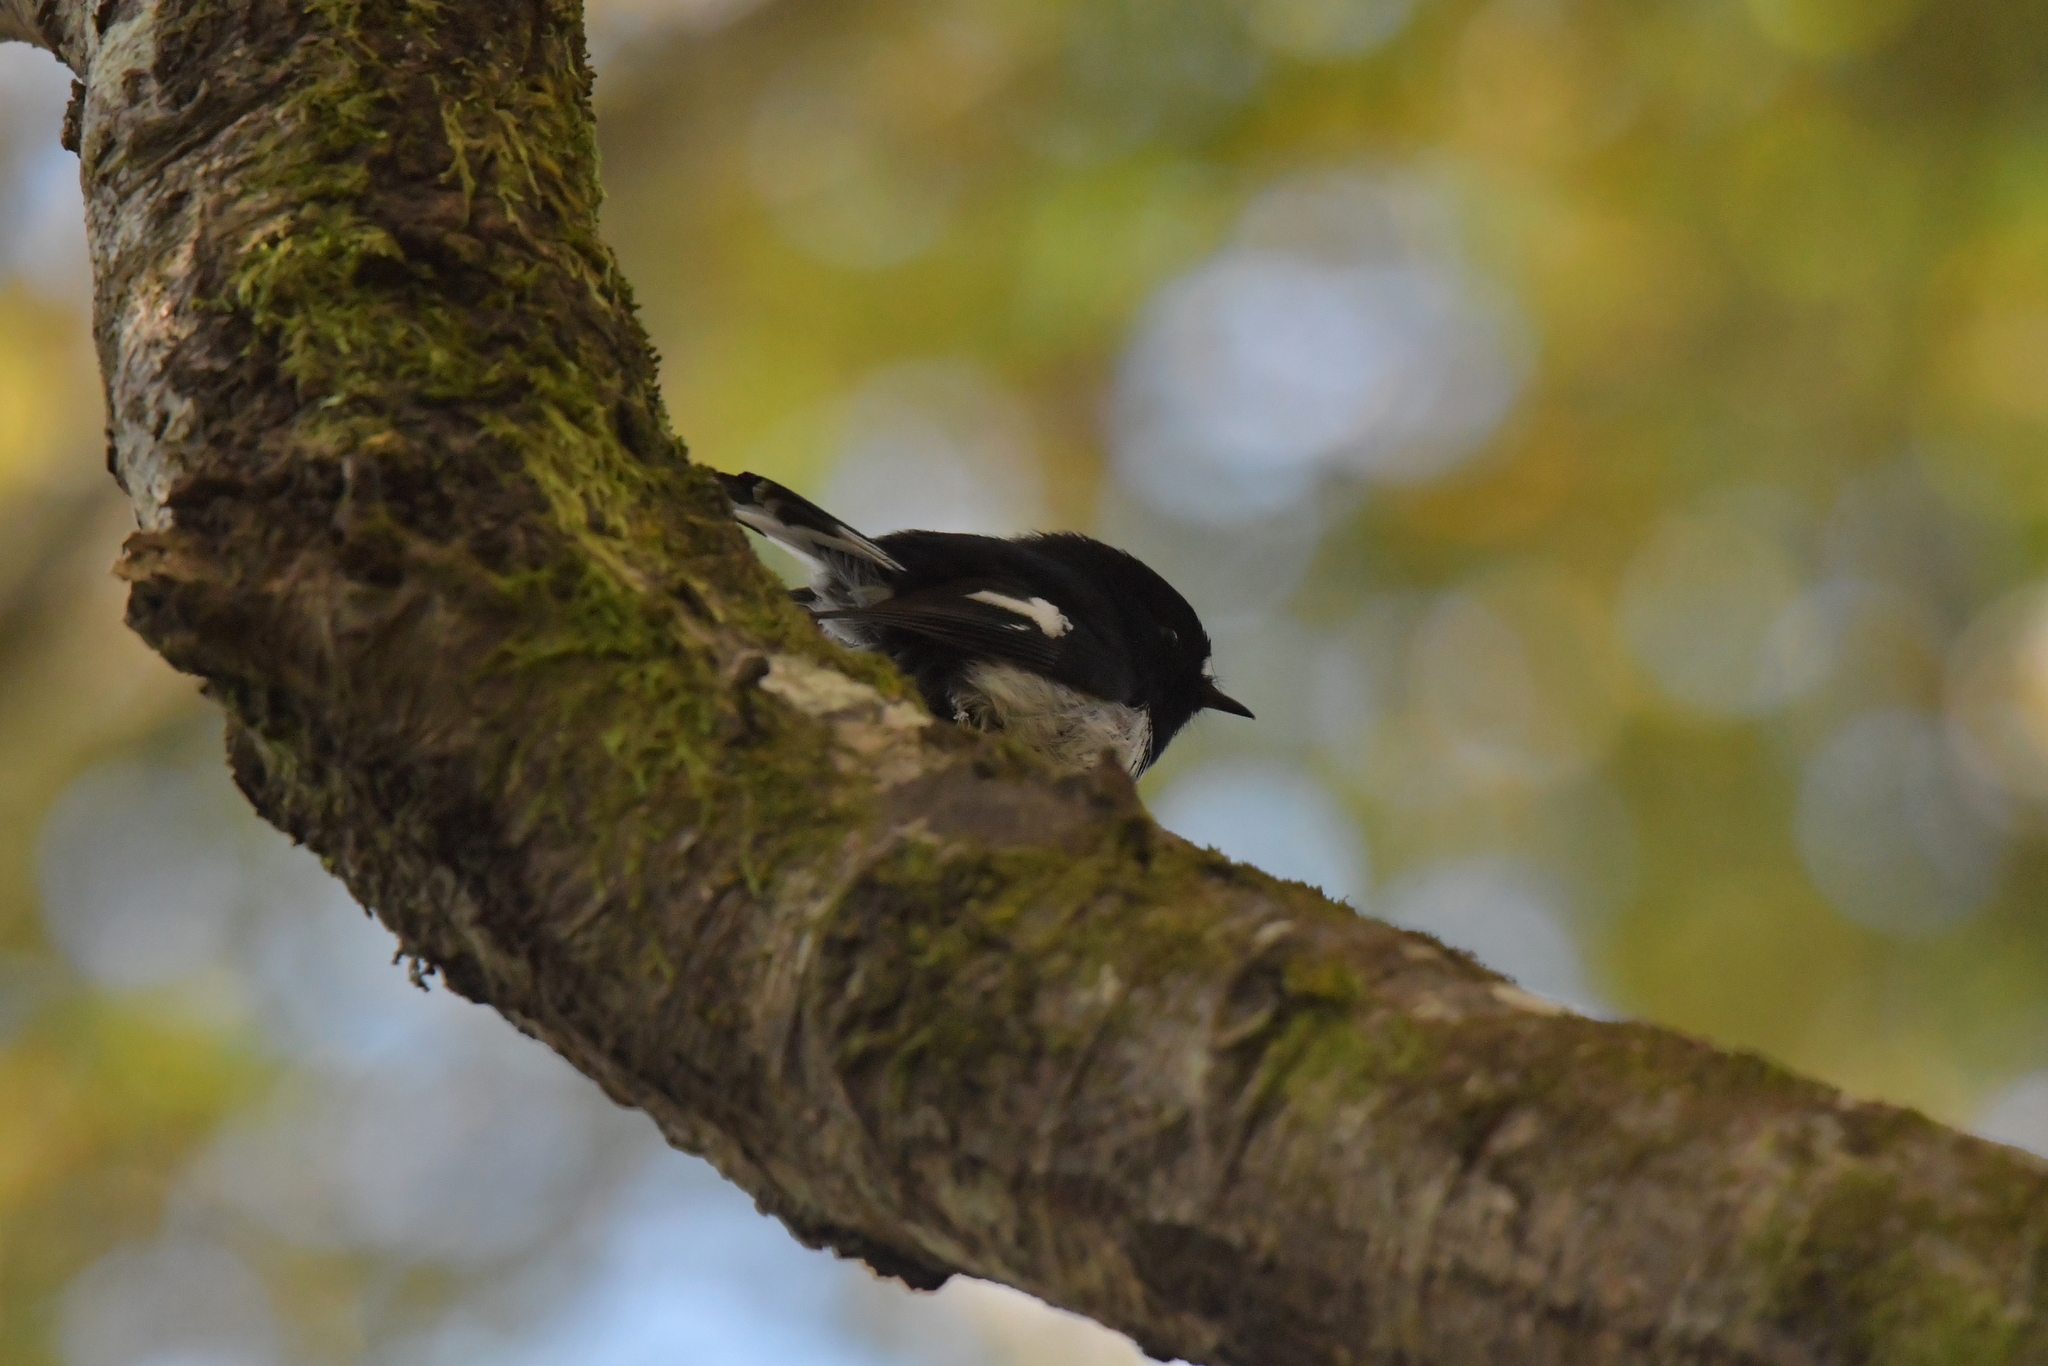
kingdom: Animalia
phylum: Chordata
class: Aves
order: Passeriformes
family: Petroicidae
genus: Petroica
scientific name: Petroica macrocephala
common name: Tomtit
